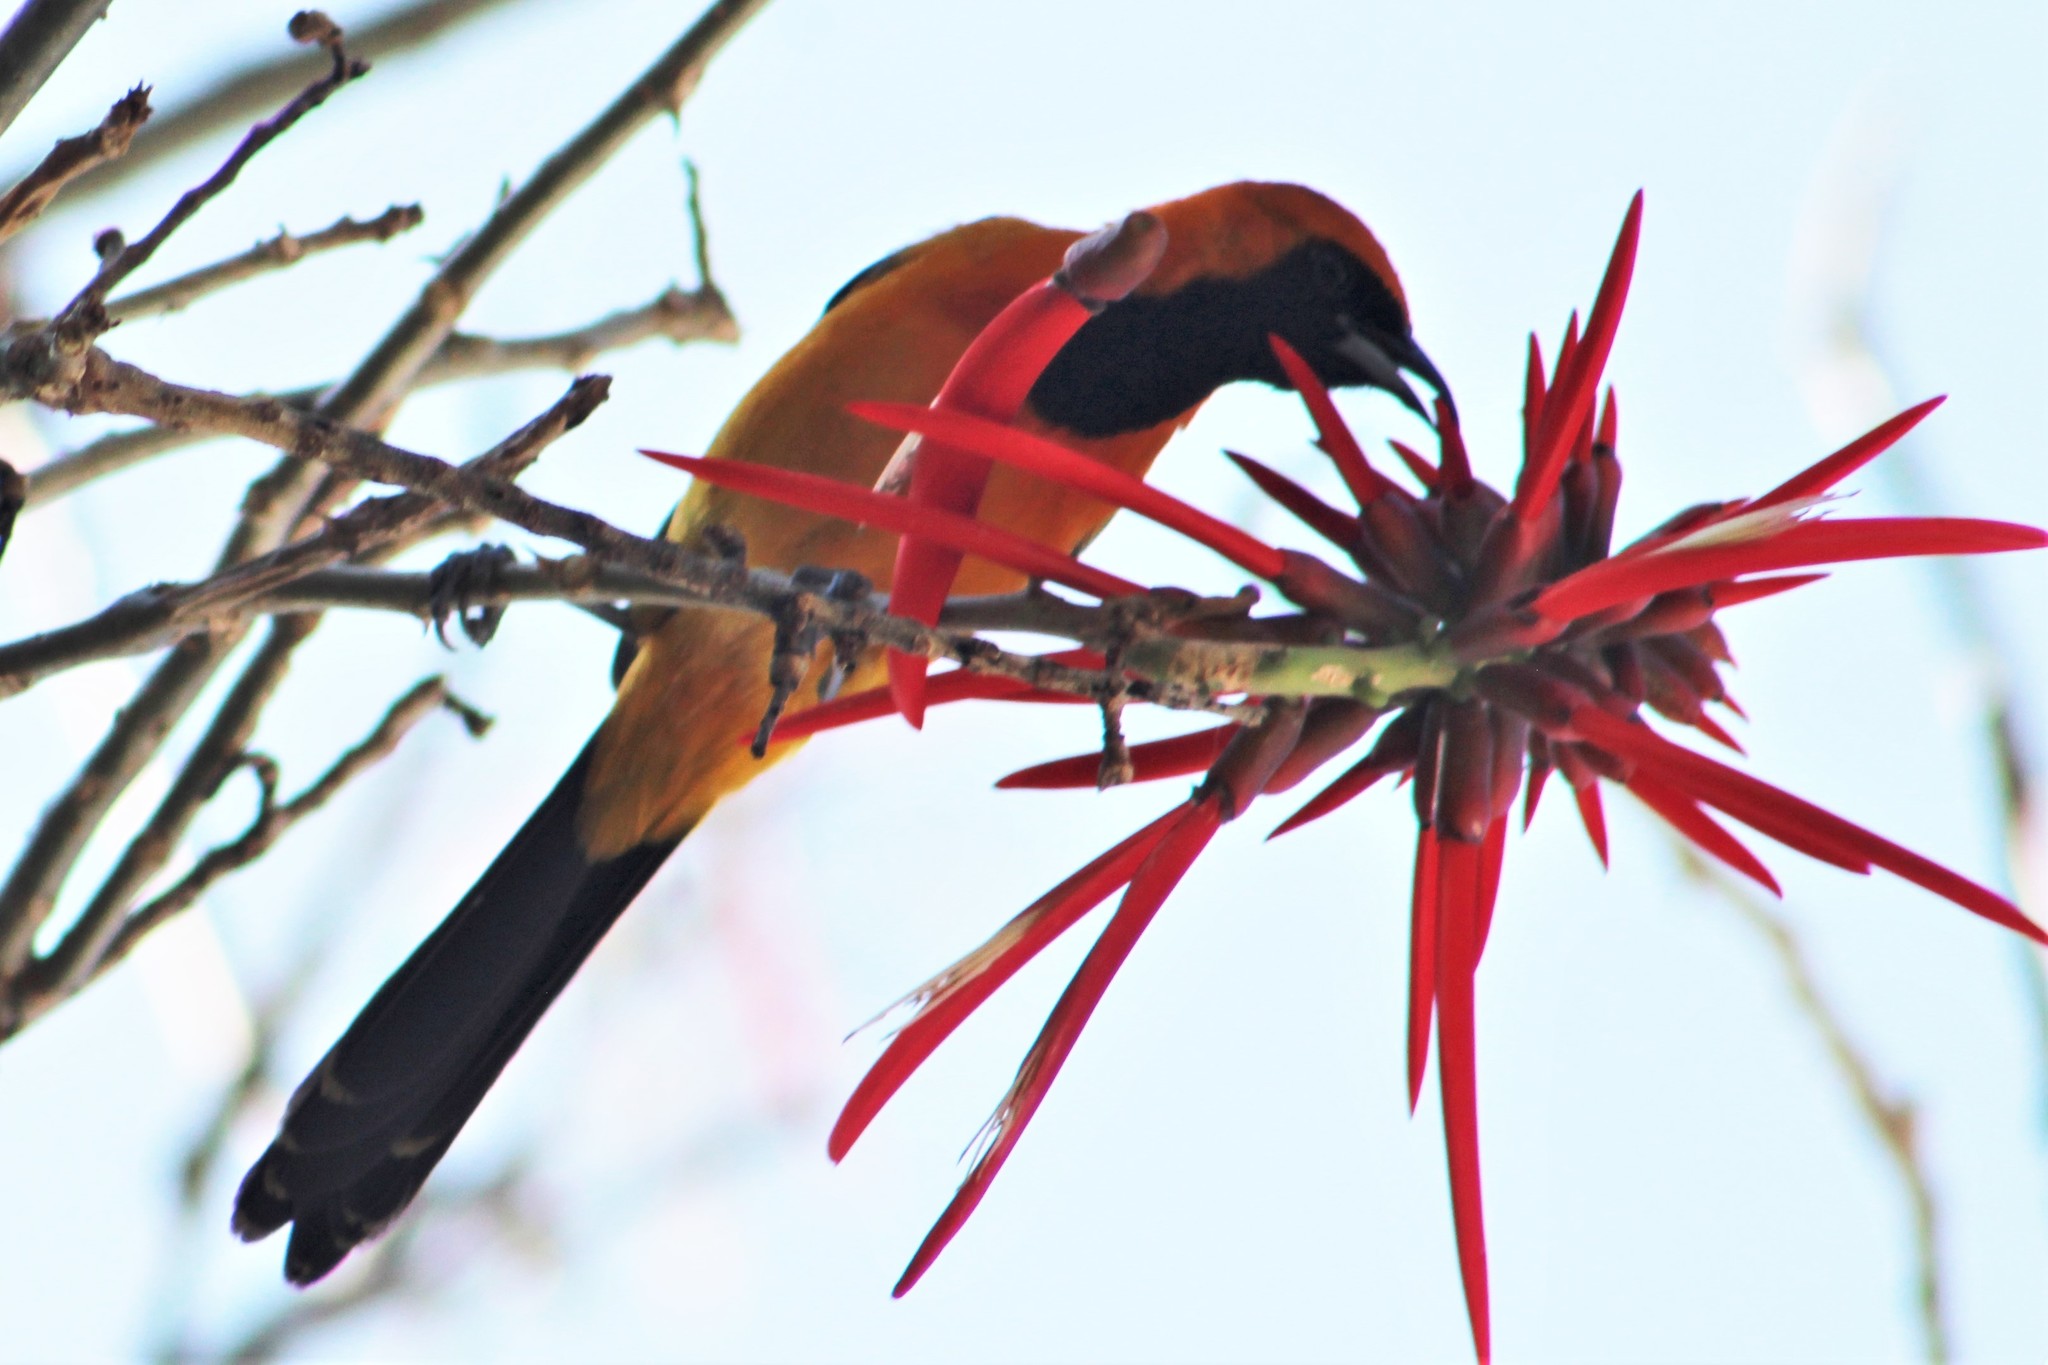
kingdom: Animalia
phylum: Chordata
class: Aves
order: Passeriformes
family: Icteridae
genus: Icterus
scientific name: Icterus cucullatus
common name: Hooded oriole
